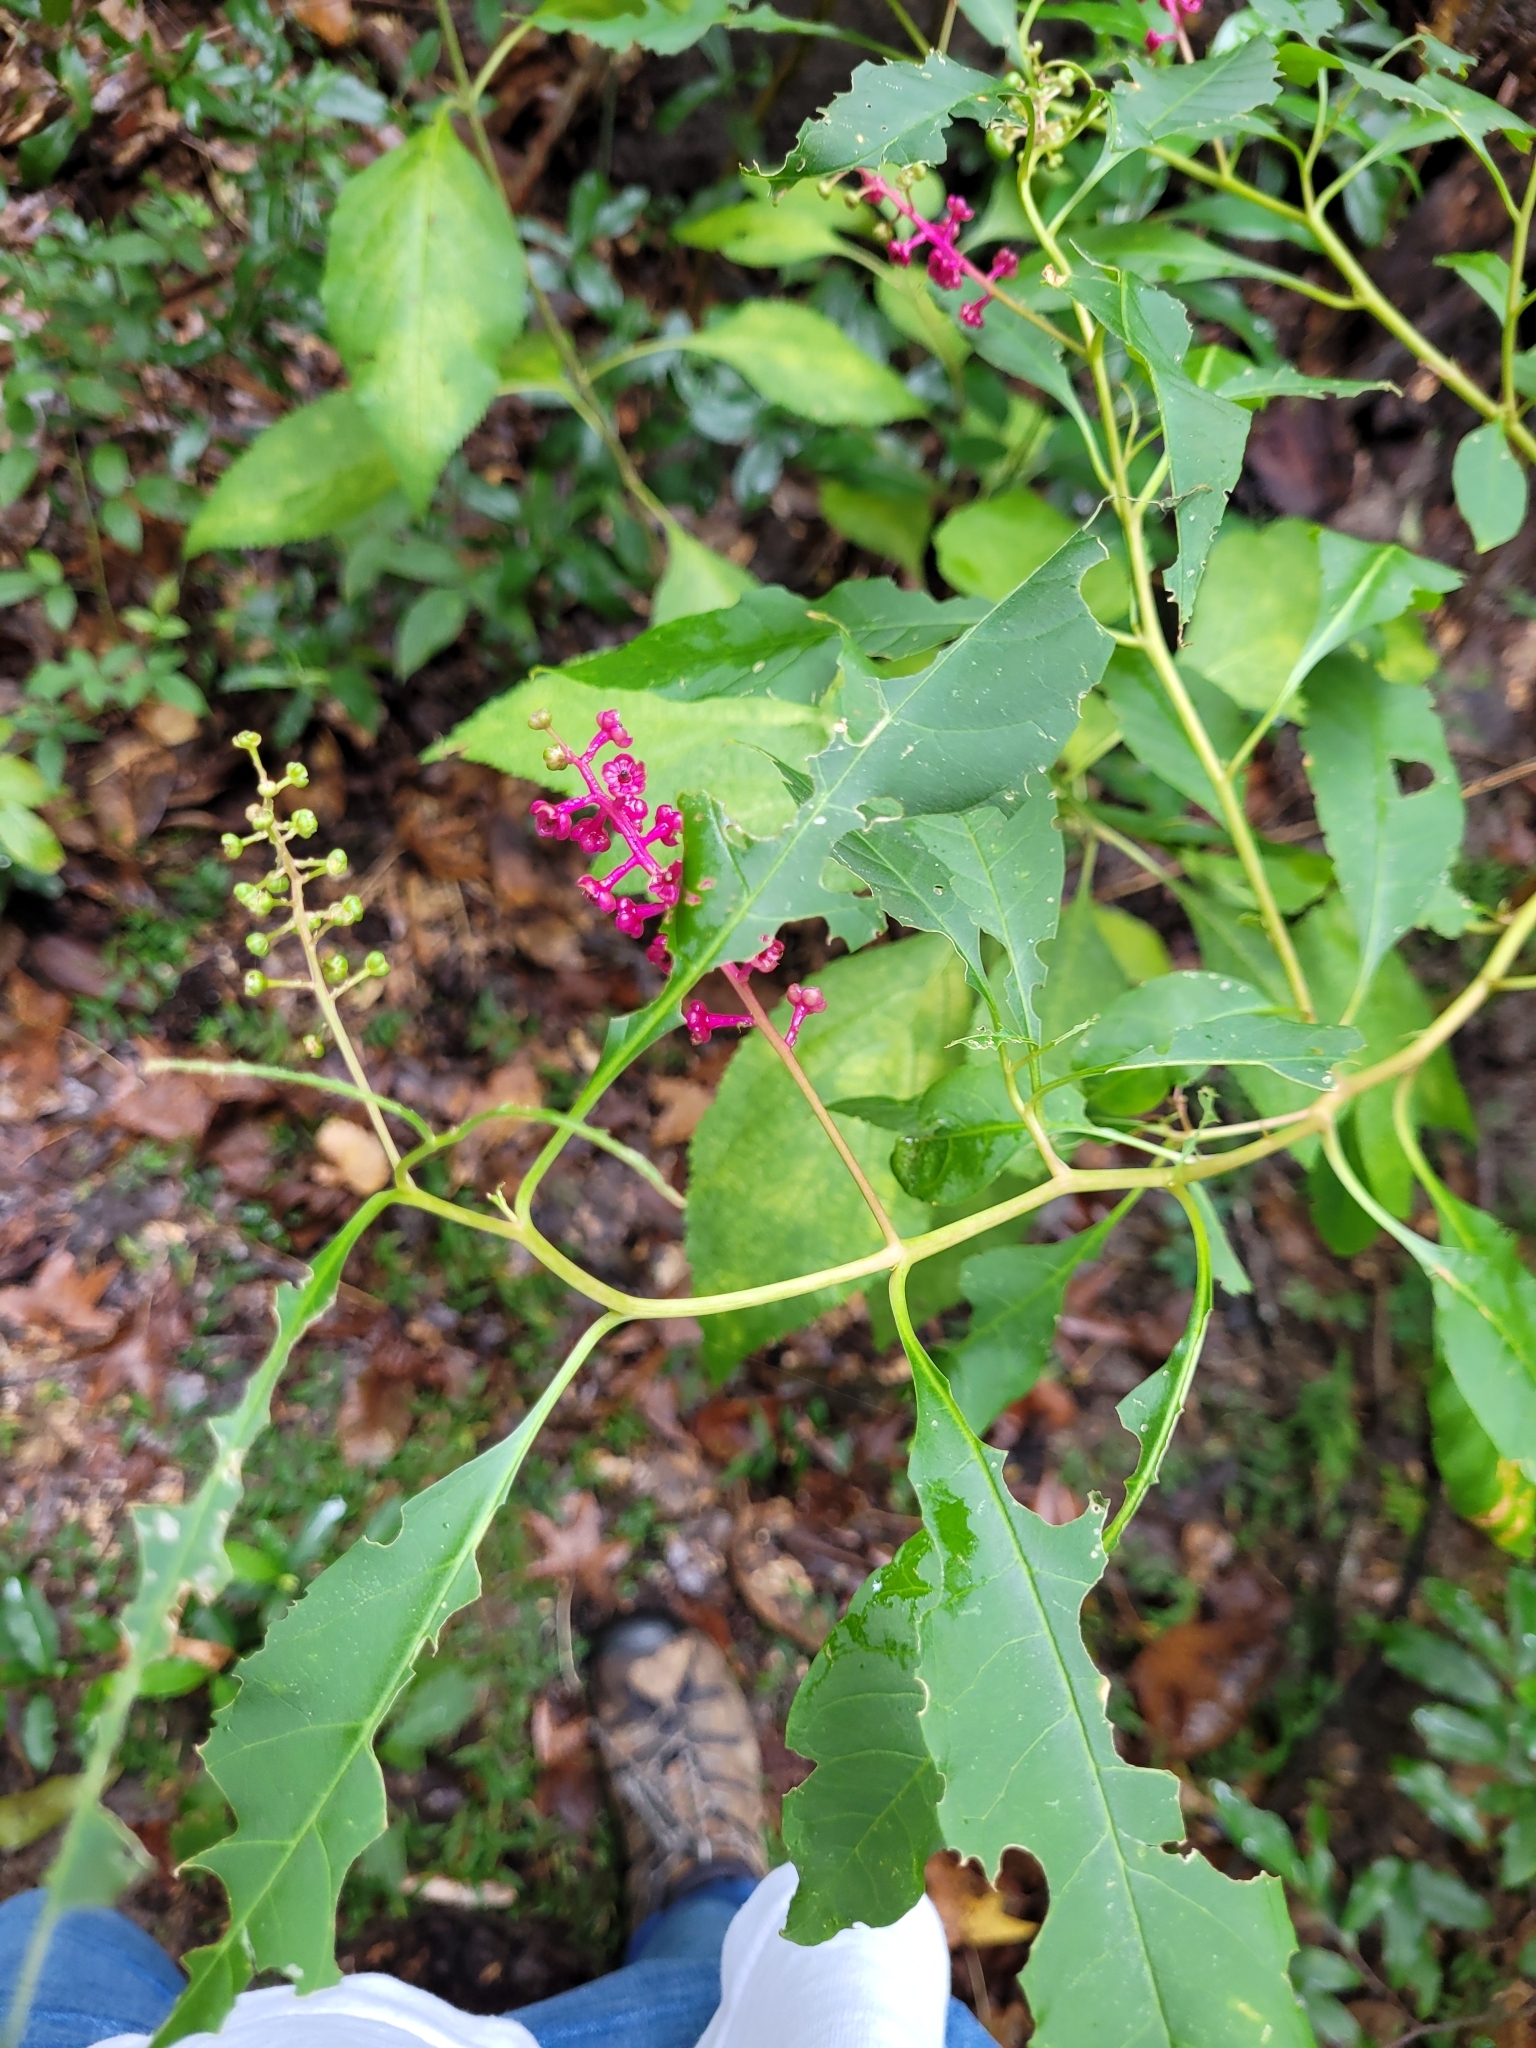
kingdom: Plantae
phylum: Tracheophyta
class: Magnoliopsida
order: Caryophyllales
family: Phytolaccaceae
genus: Phytolacca
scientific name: Phytolacca americana
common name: American pokeweed
